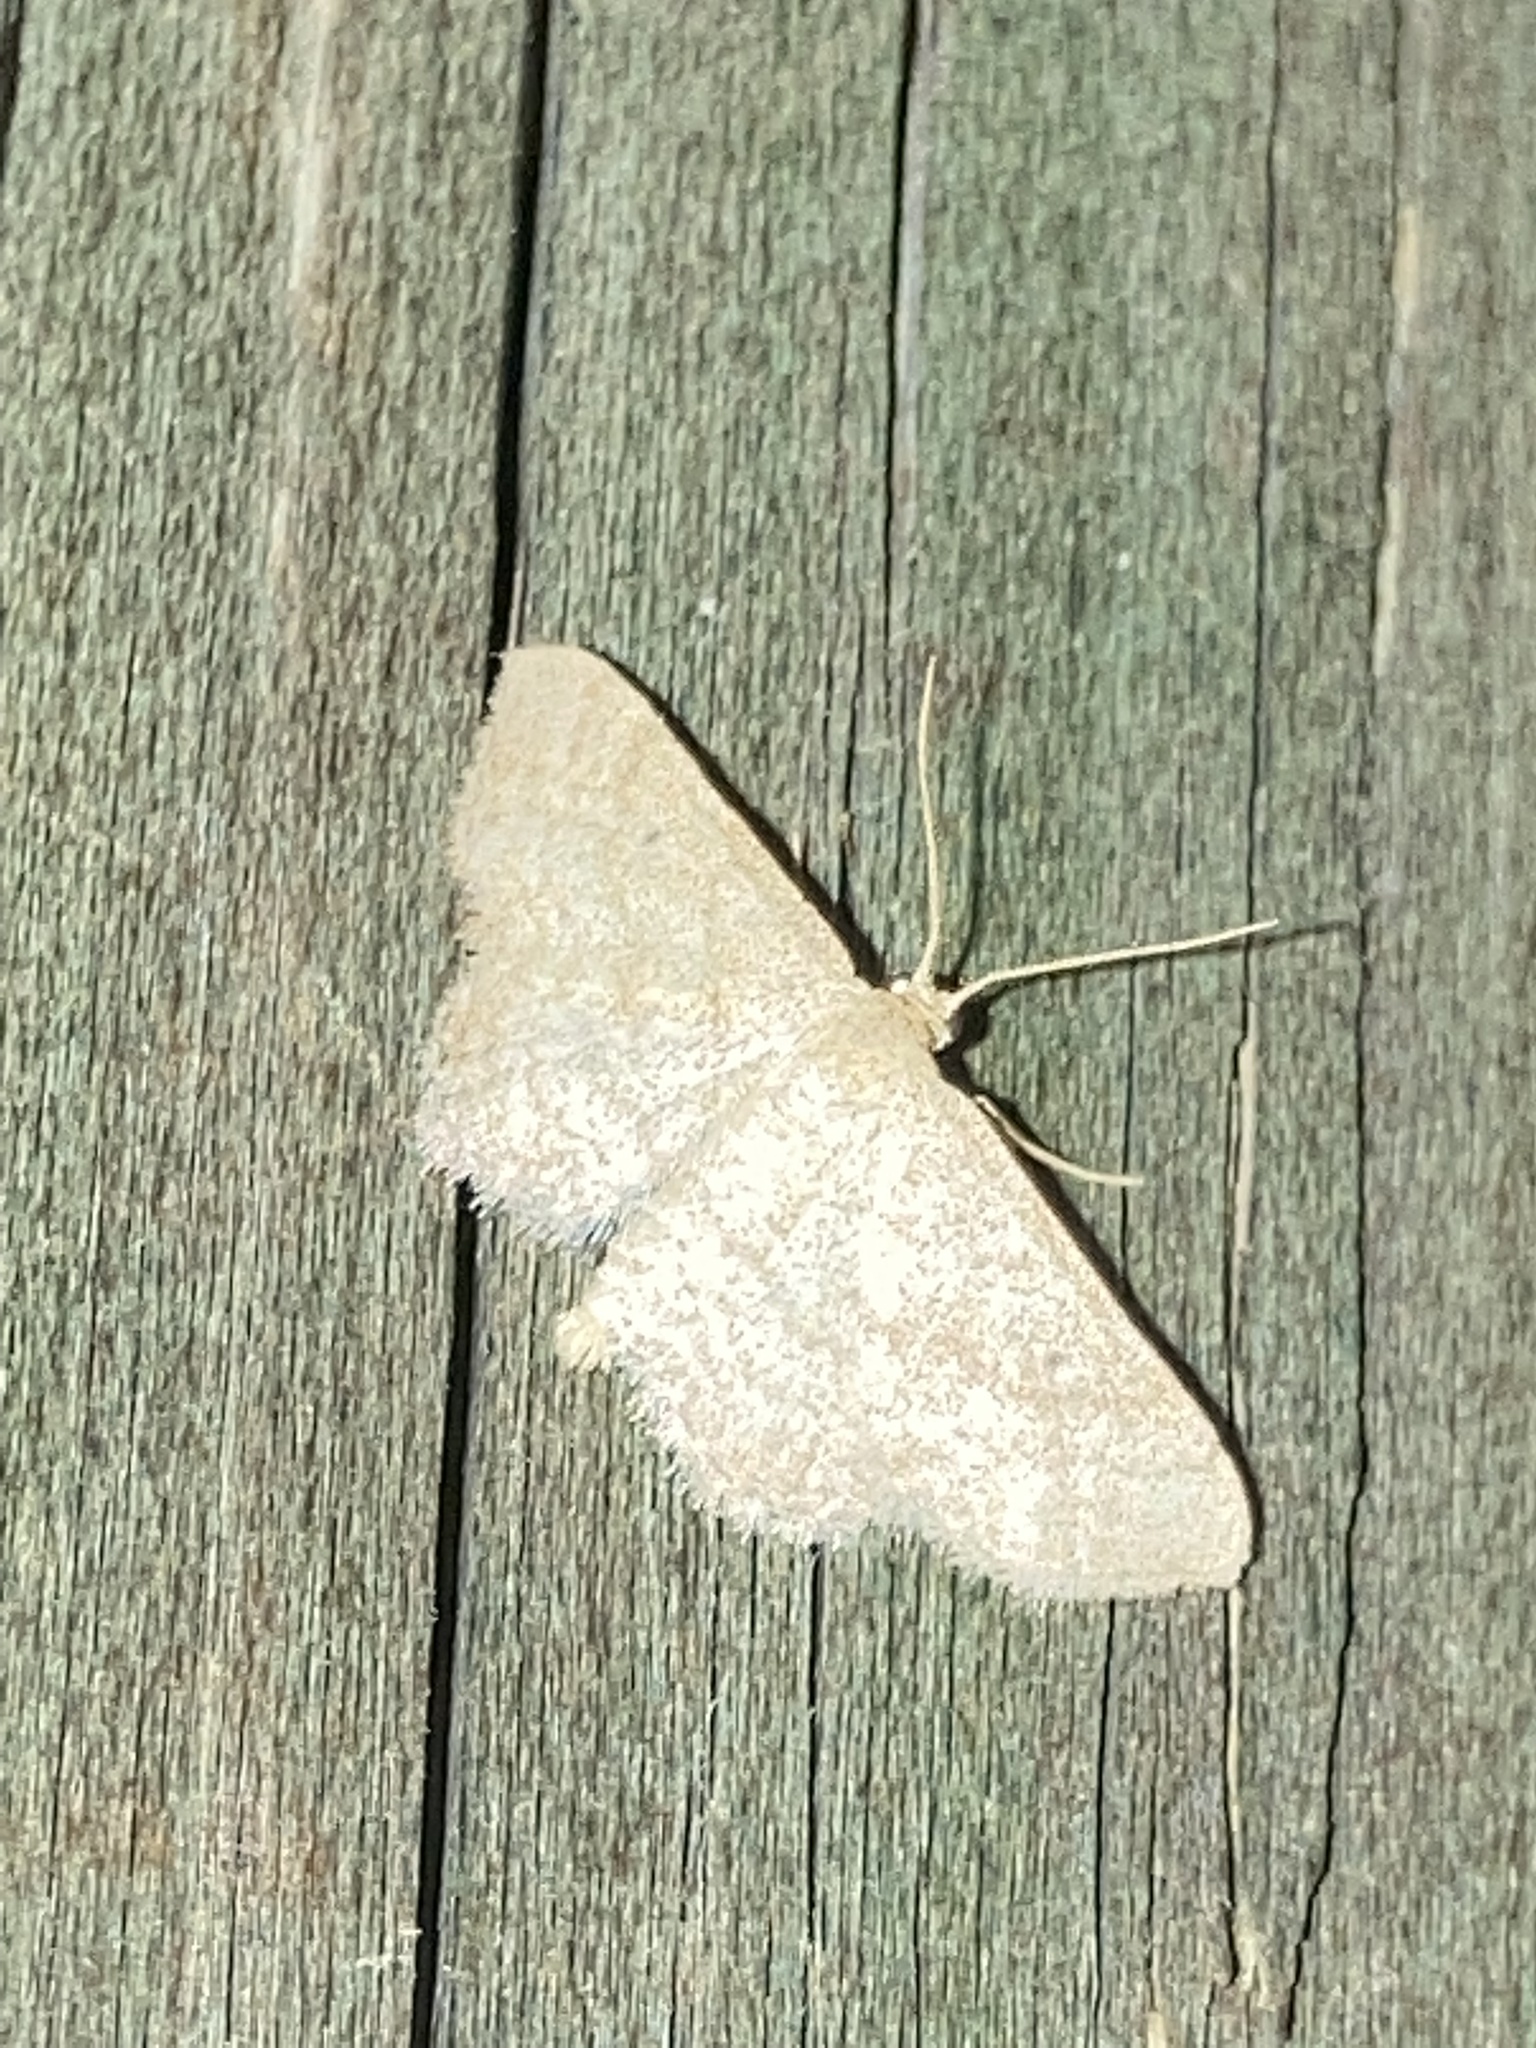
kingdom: Animalia
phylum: Arthropoda
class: Insecta
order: Lepidoptera
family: Geometridae
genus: Lobocleta
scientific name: Lobocleta ossularia
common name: Drab brown wave
